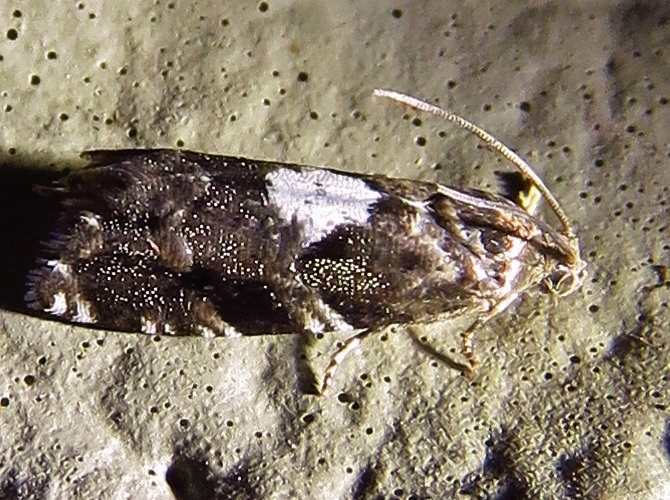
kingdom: Animalia
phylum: Arthropoda
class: Insecta
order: Lepidoptera
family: Tortricidae
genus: Cydia
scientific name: Cydia albimaculana
